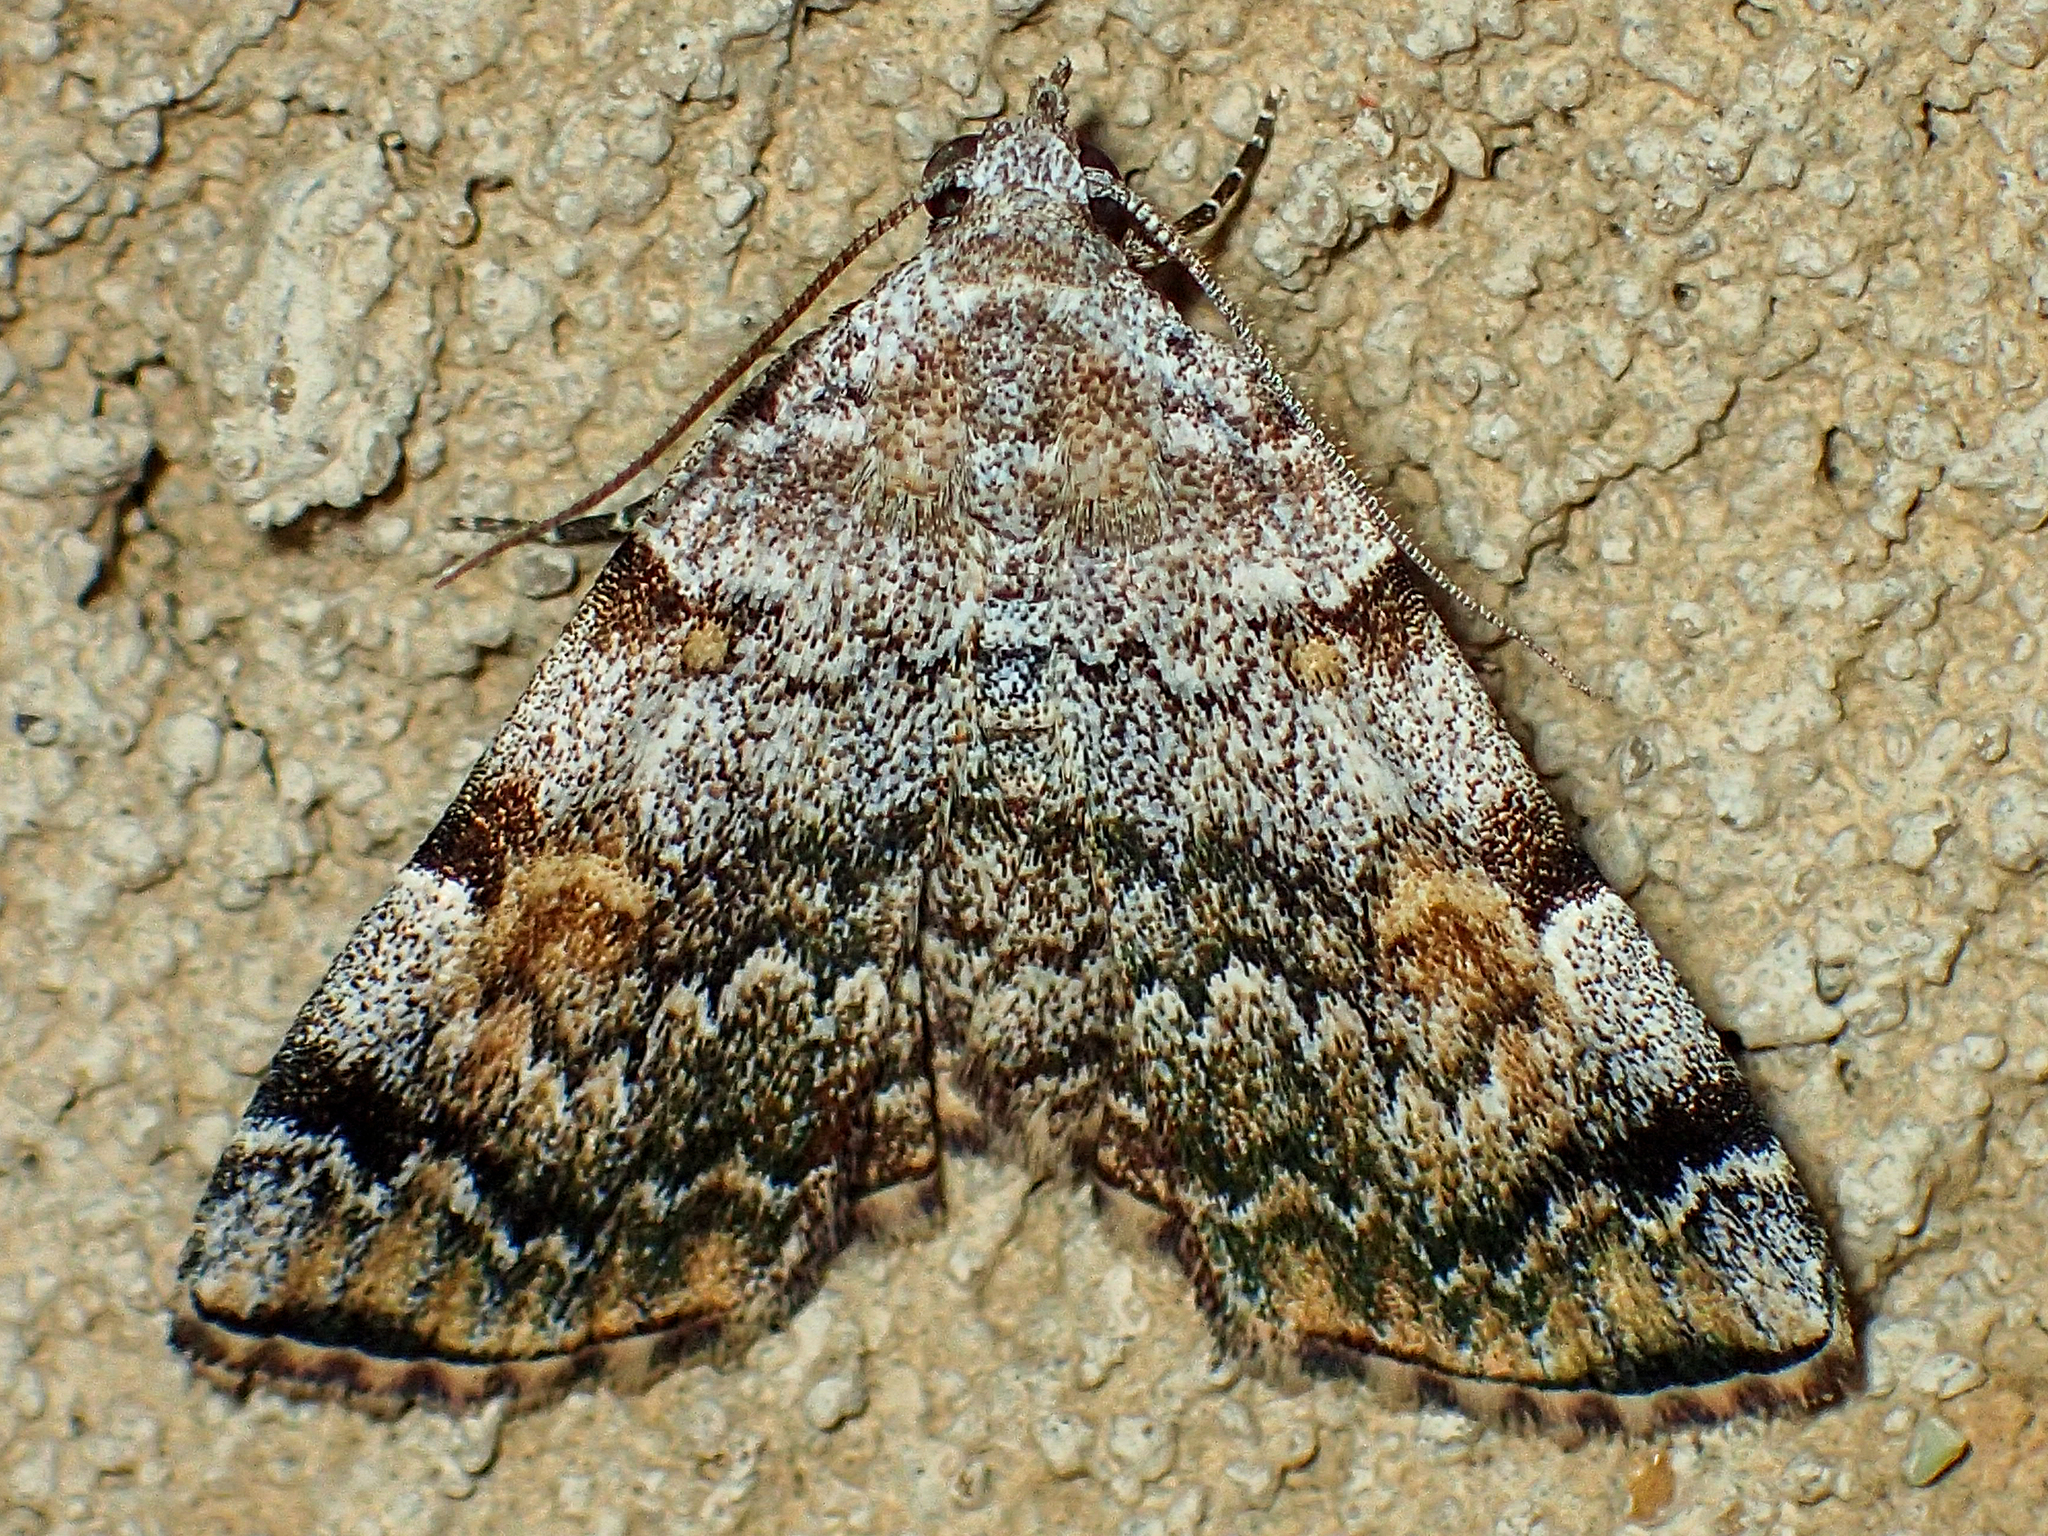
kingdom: Animalia
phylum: Arthropoda
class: Insecta
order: Lepidoptera
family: Erebidae
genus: Idia
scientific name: Idia americalis
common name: American idia moth
